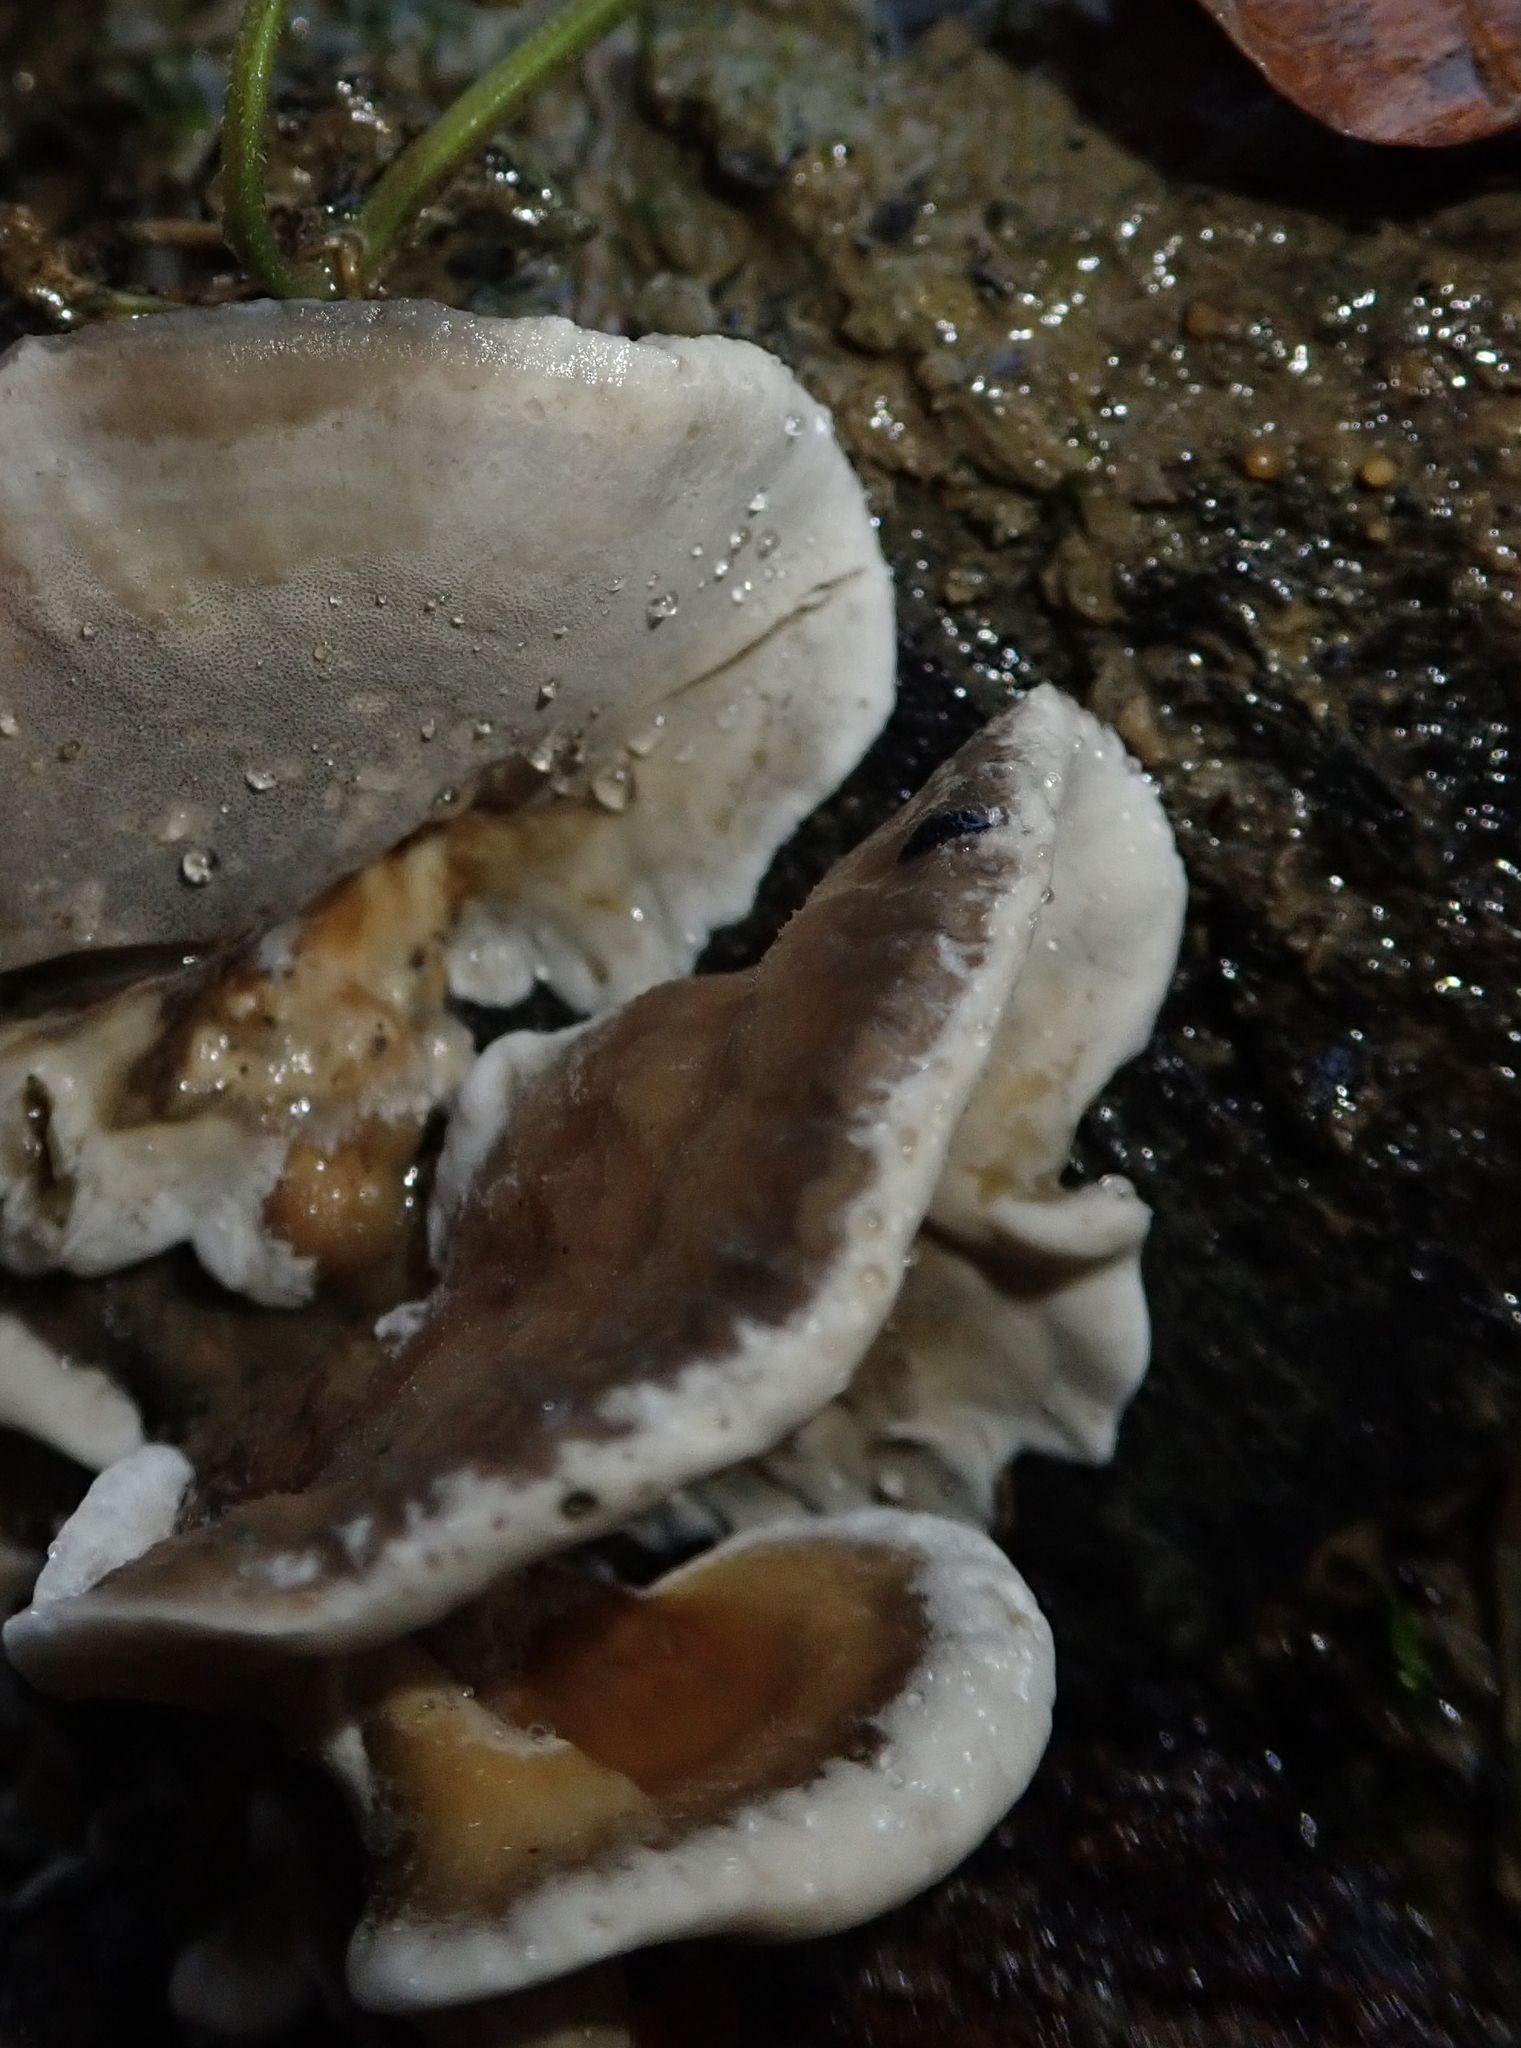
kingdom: Fungi
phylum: Basidiomycota
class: Agaricomycetes
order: Polyporales
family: Phanerochaetaceae
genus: Bjerkandera
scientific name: Bjerkandera adusta
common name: Smoky bracket
